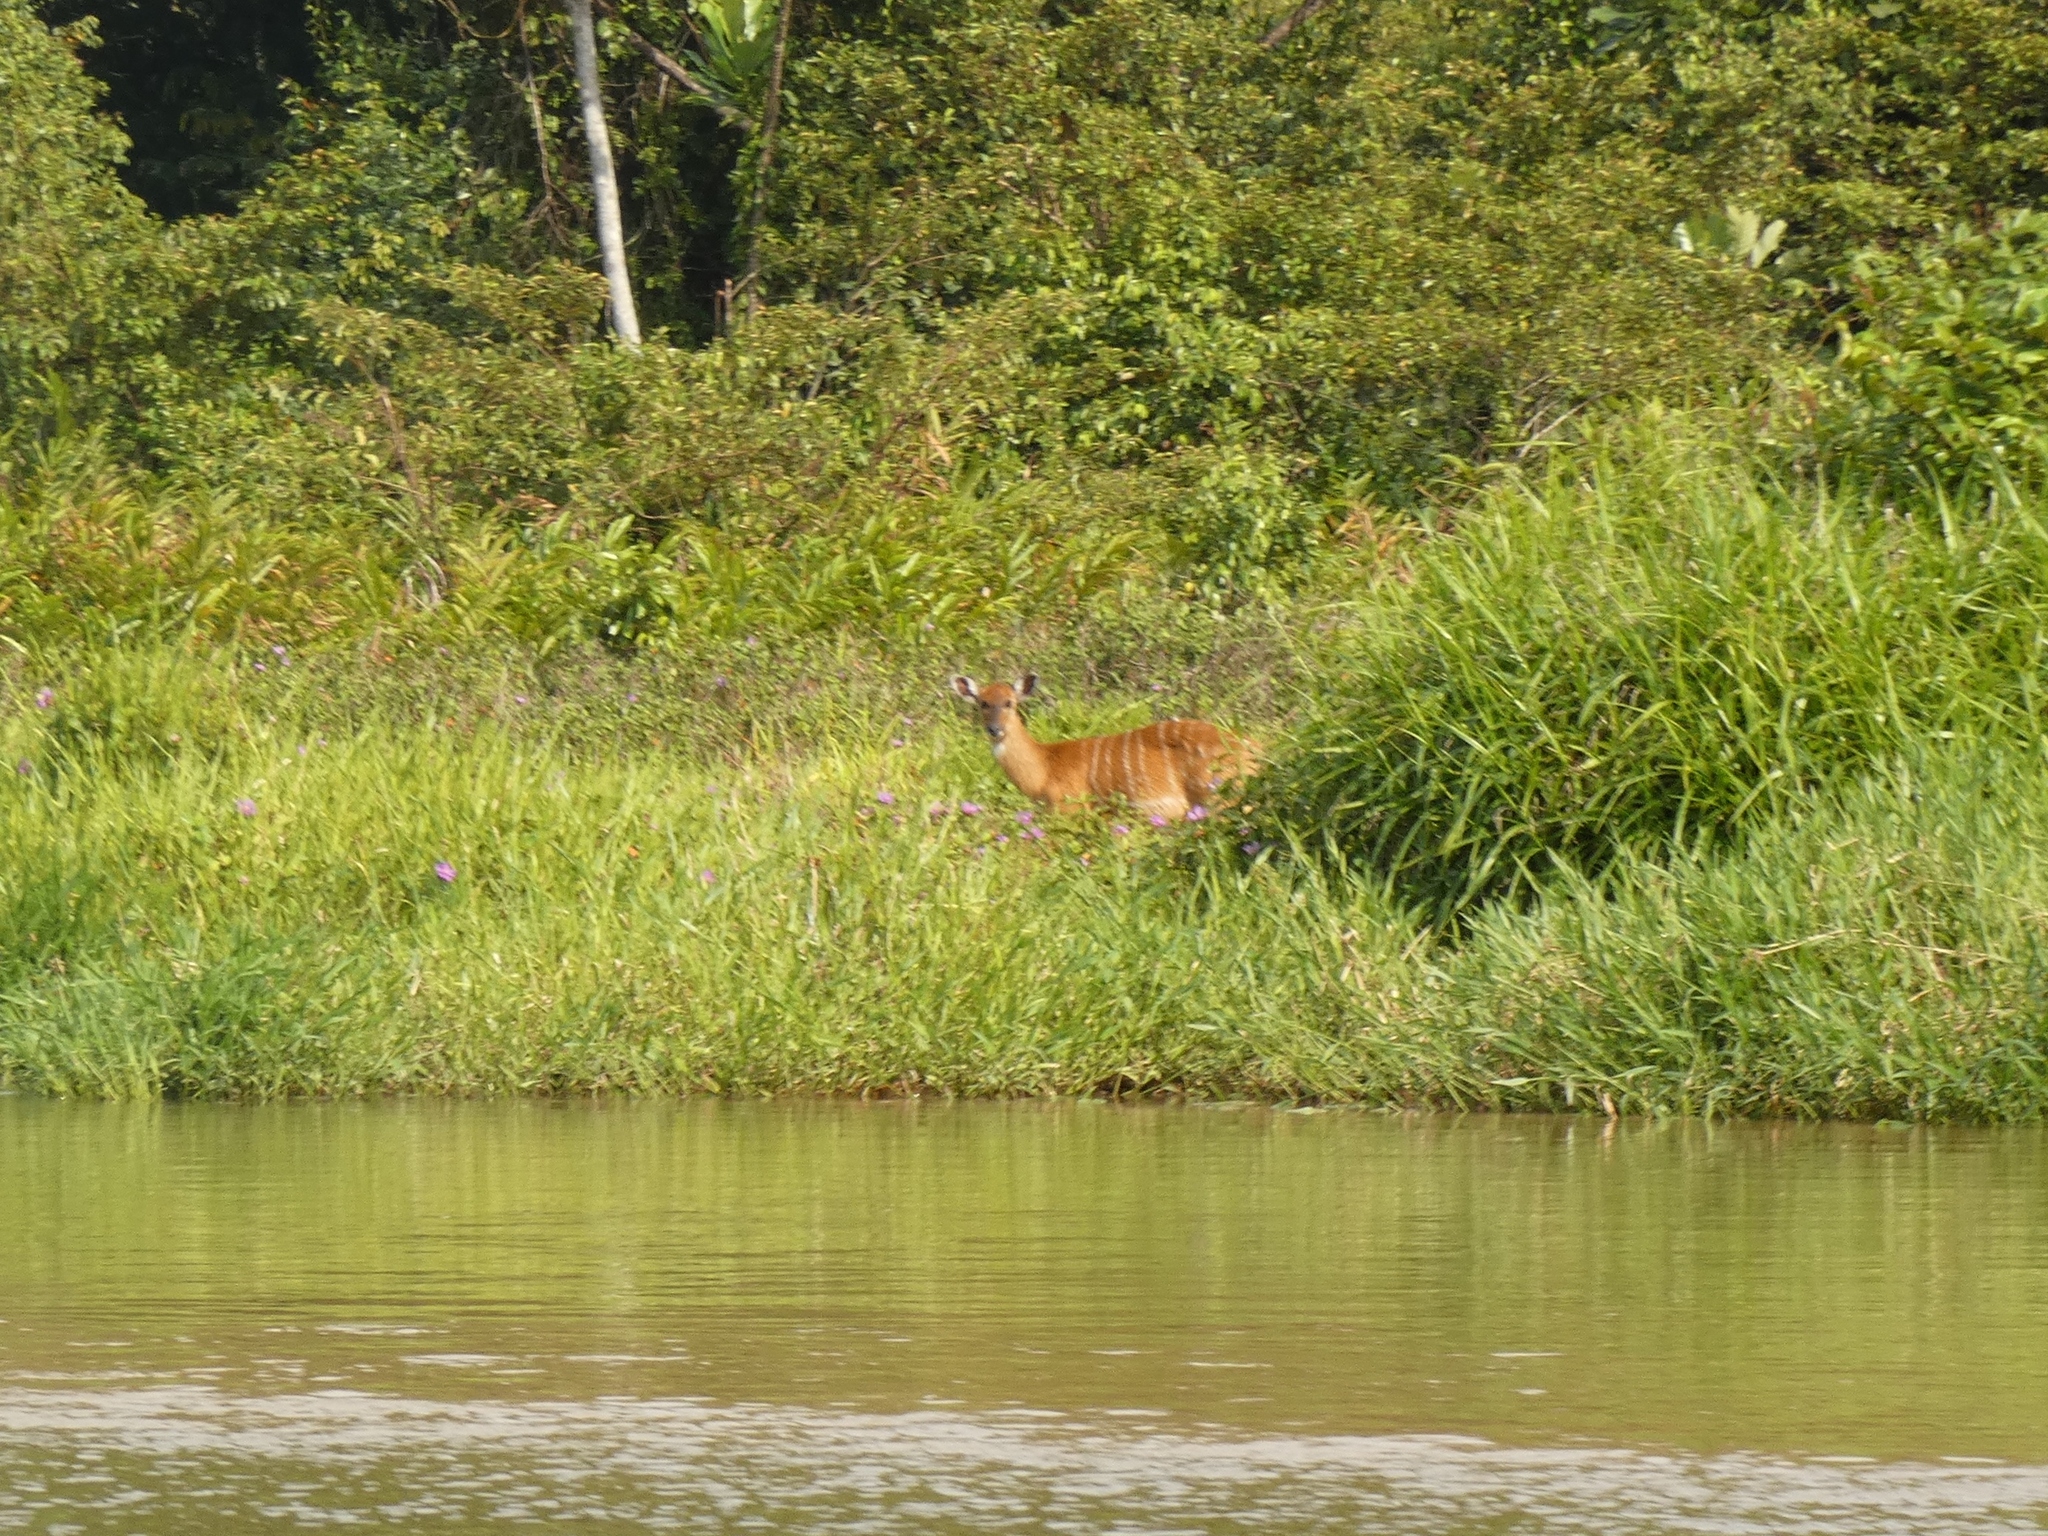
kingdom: Animalia
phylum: Chordata
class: Mammalia
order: Artiodactyla
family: Bovidae
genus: Tragelaphus
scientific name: Tragelaphus spekii
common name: Sitatunga
